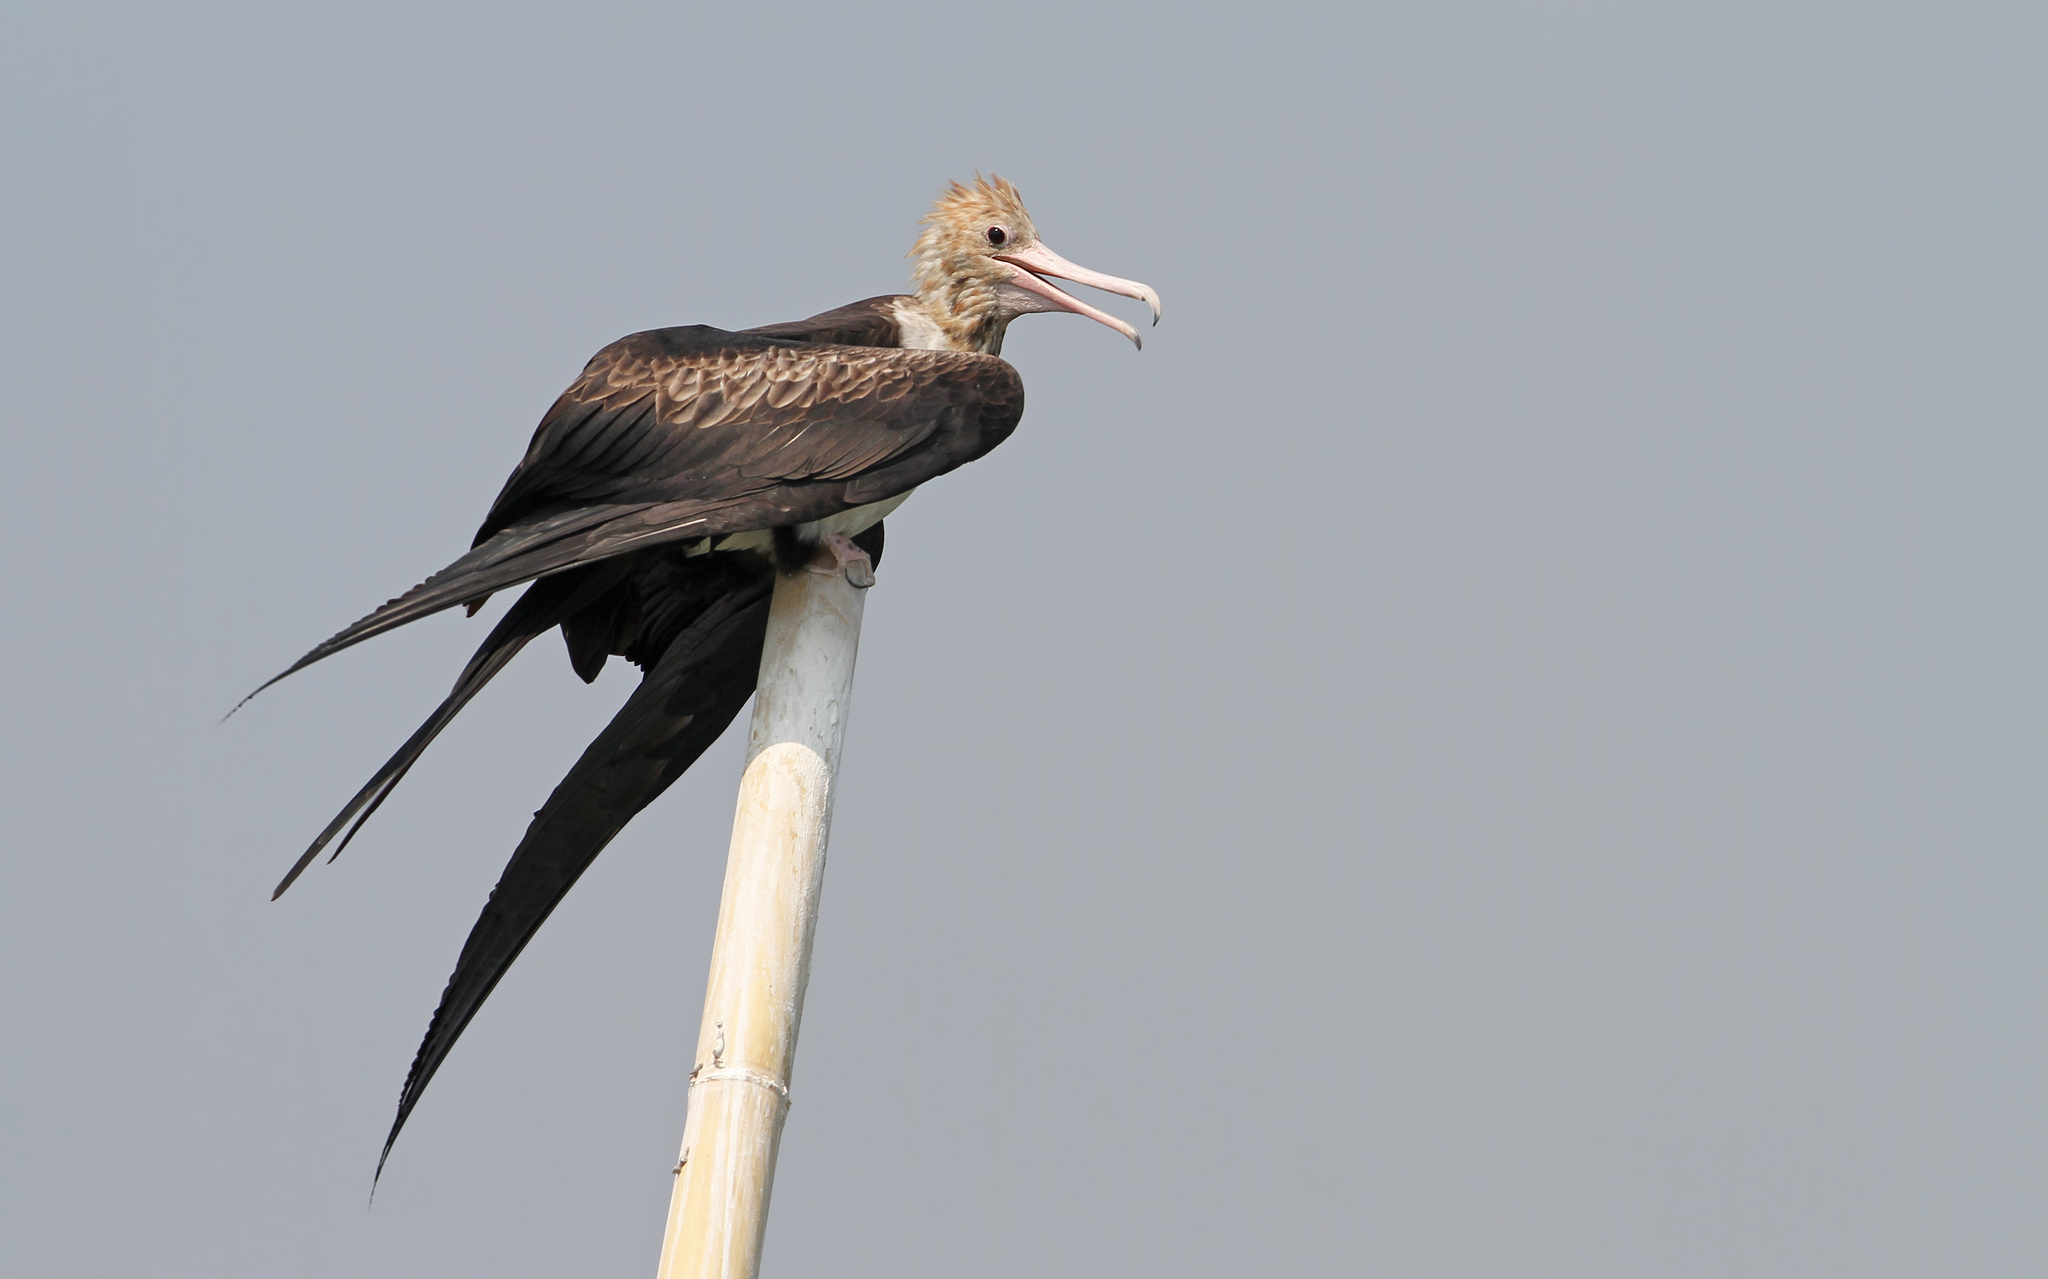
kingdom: Animalia
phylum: Chordata
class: Aves
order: Suliformes
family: Fregatidae
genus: Fregata
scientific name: Fregata andrewsi
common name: Christmas frigatebird
